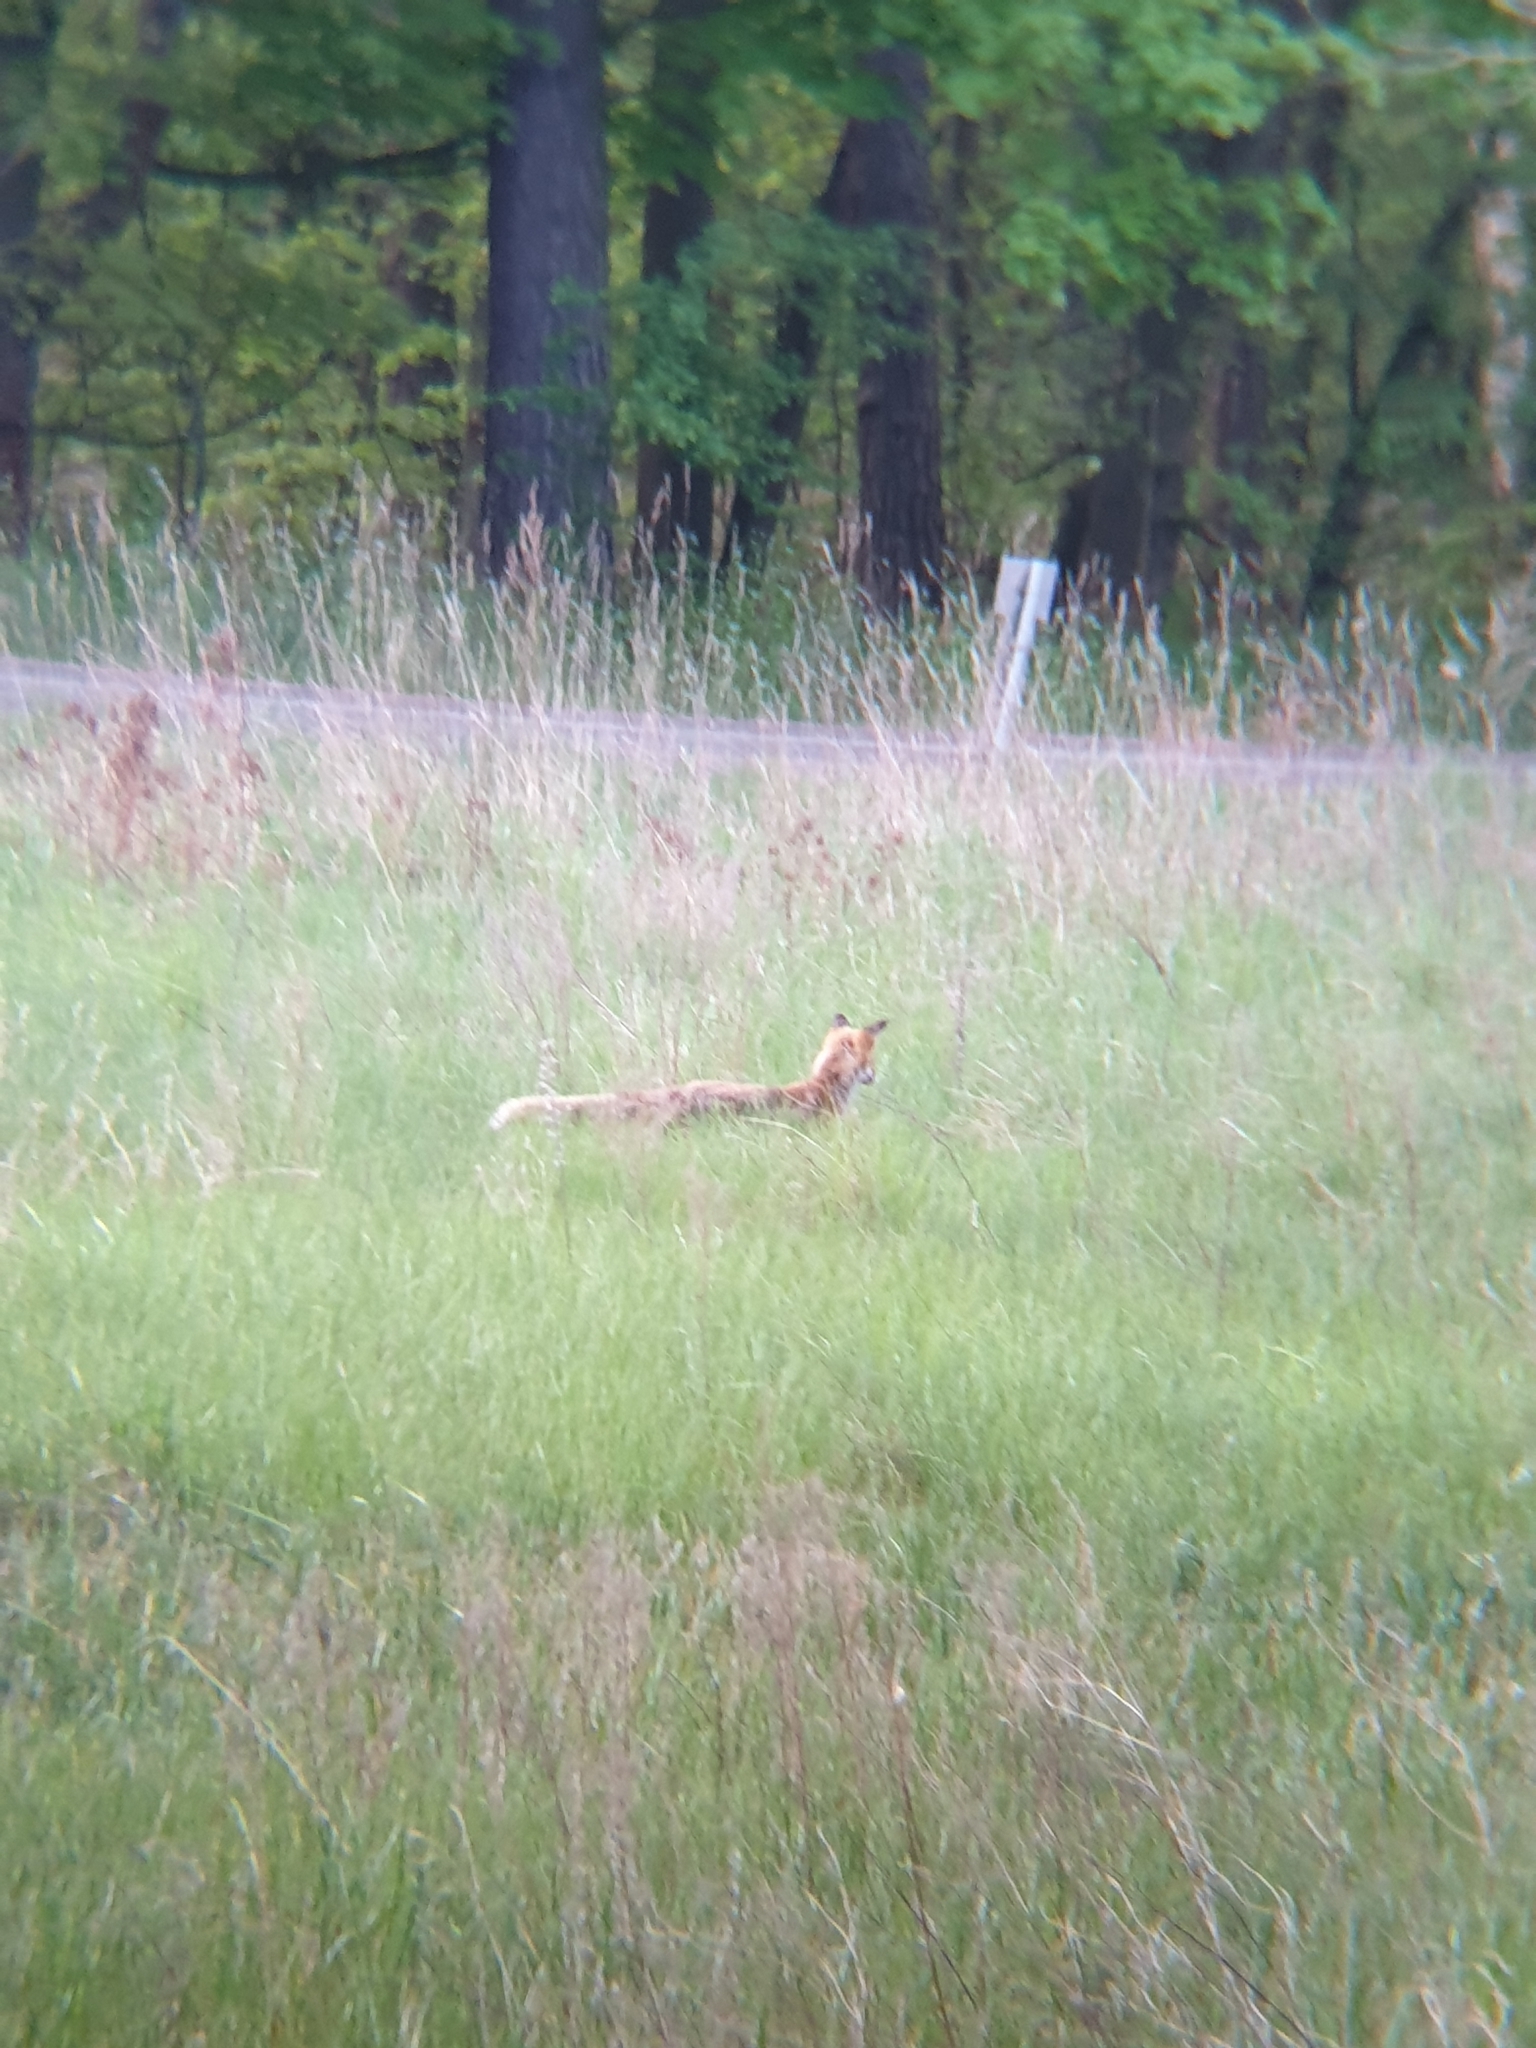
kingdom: Animalia
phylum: Chordata
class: Mammalia
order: Carnivora
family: Canidae
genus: Vulpes
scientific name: Vulpes vulpes
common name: Red fox
